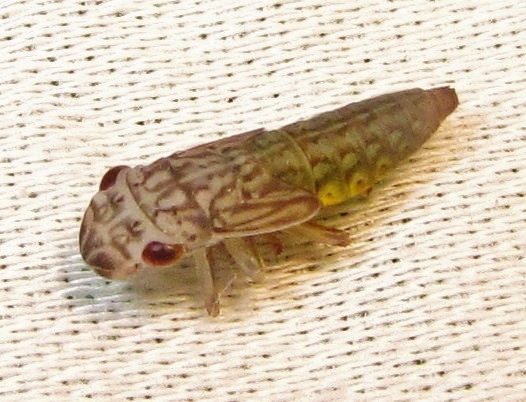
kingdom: Animalia
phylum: Arthropoda
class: Insecta
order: Hemiptera
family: Cicadellidae
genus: Oncometopia
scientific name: Oncometopia orbona
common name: Broad-headed sharpshooter
